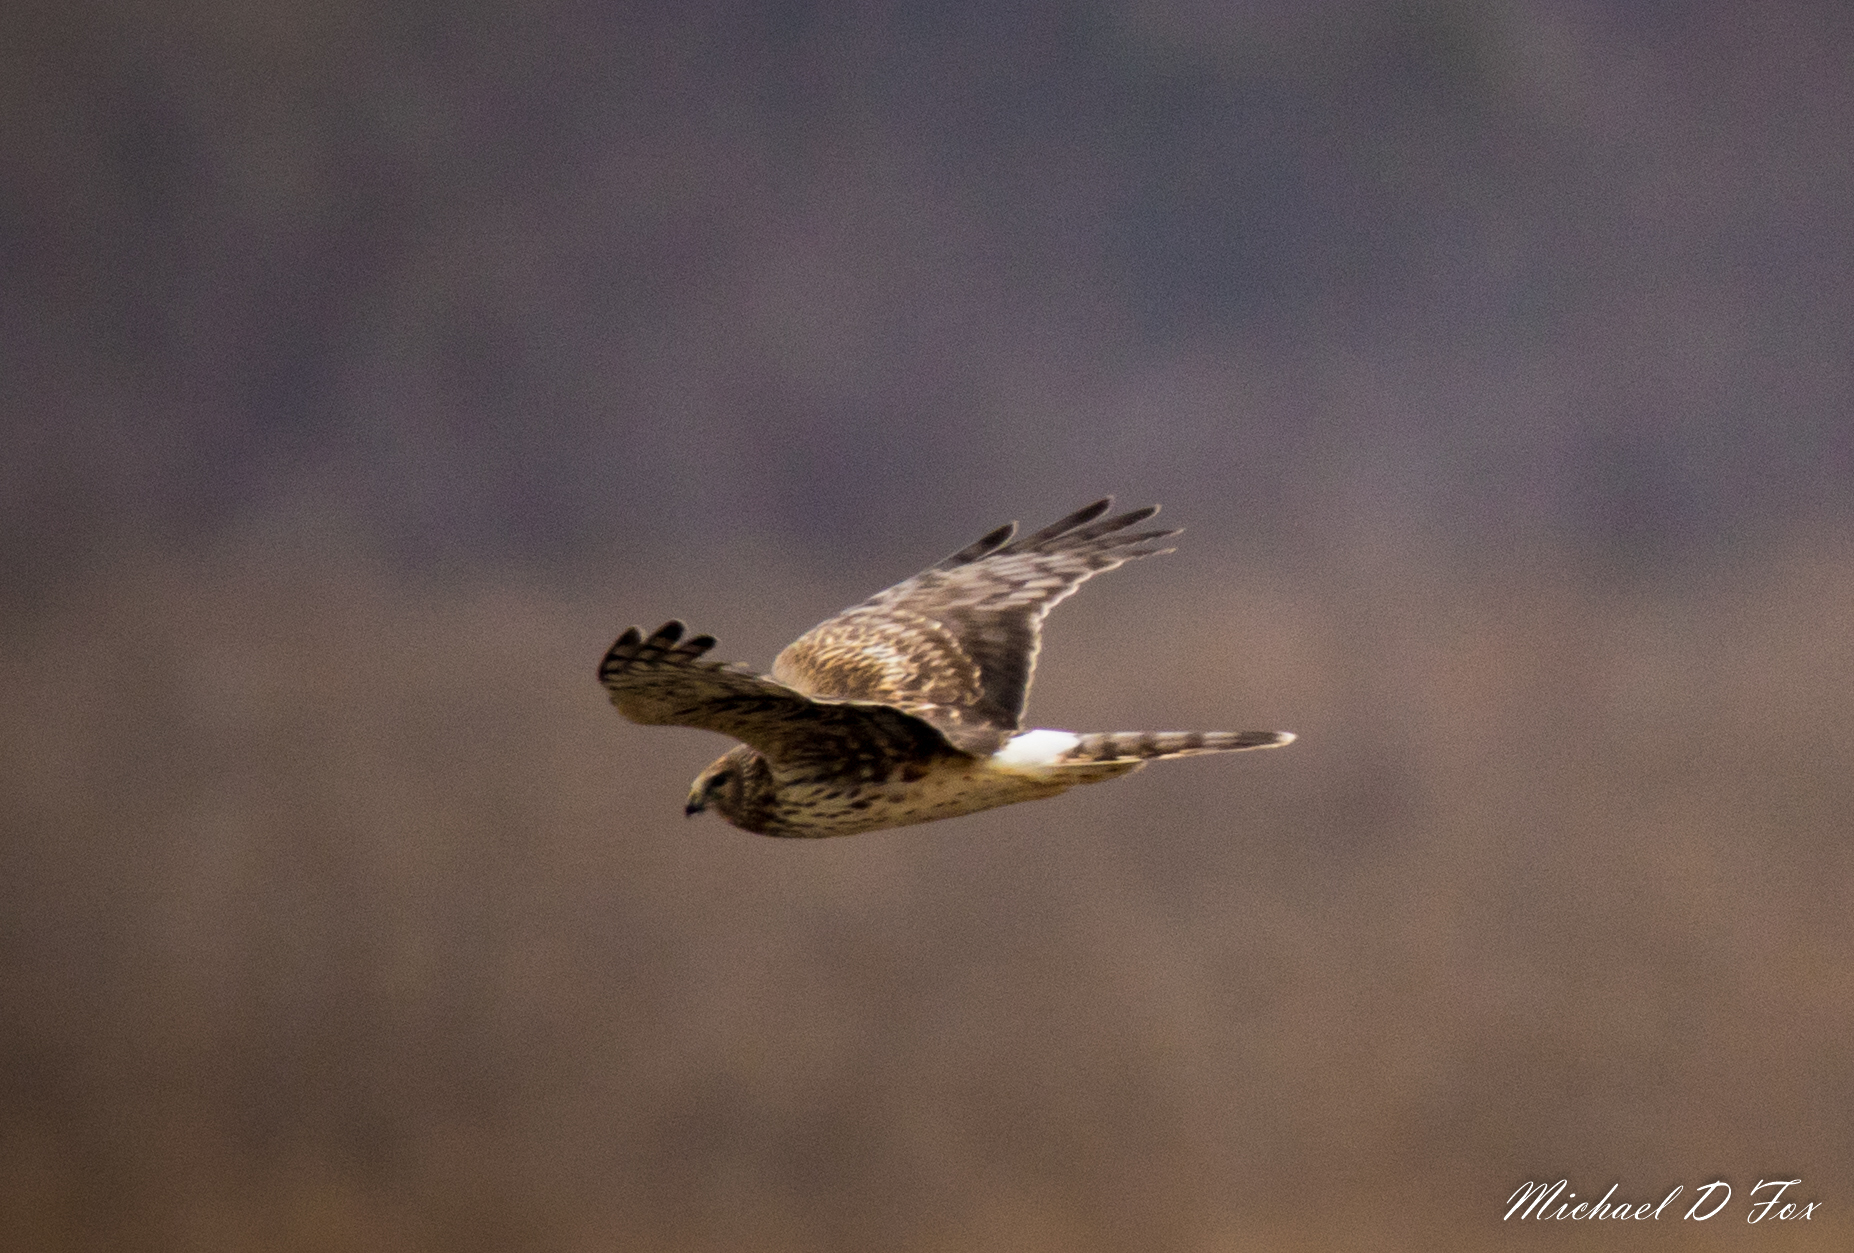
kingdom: Animalia
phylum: Chordata
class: Aves
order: Accipitriformes
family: Accipitridae
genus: Circus
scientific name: Circus cyaneus
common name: Hen harrier
